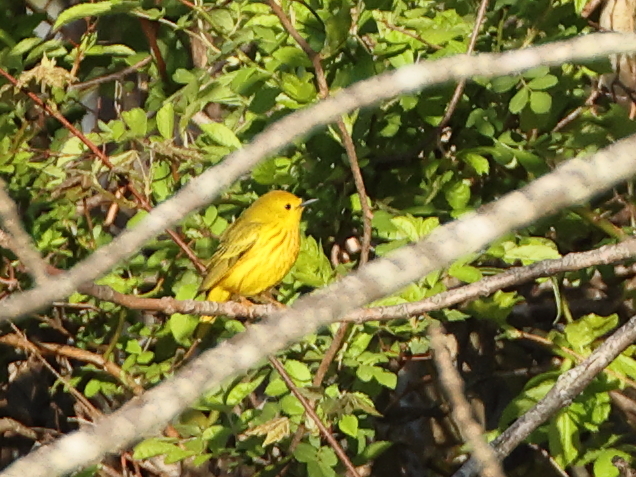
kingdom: Animalia
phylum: Chordata
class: Aves
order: Passeriformes
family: Parulidae
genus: Setophaga
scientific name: Setophaga petechia
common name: Yellow warbler
